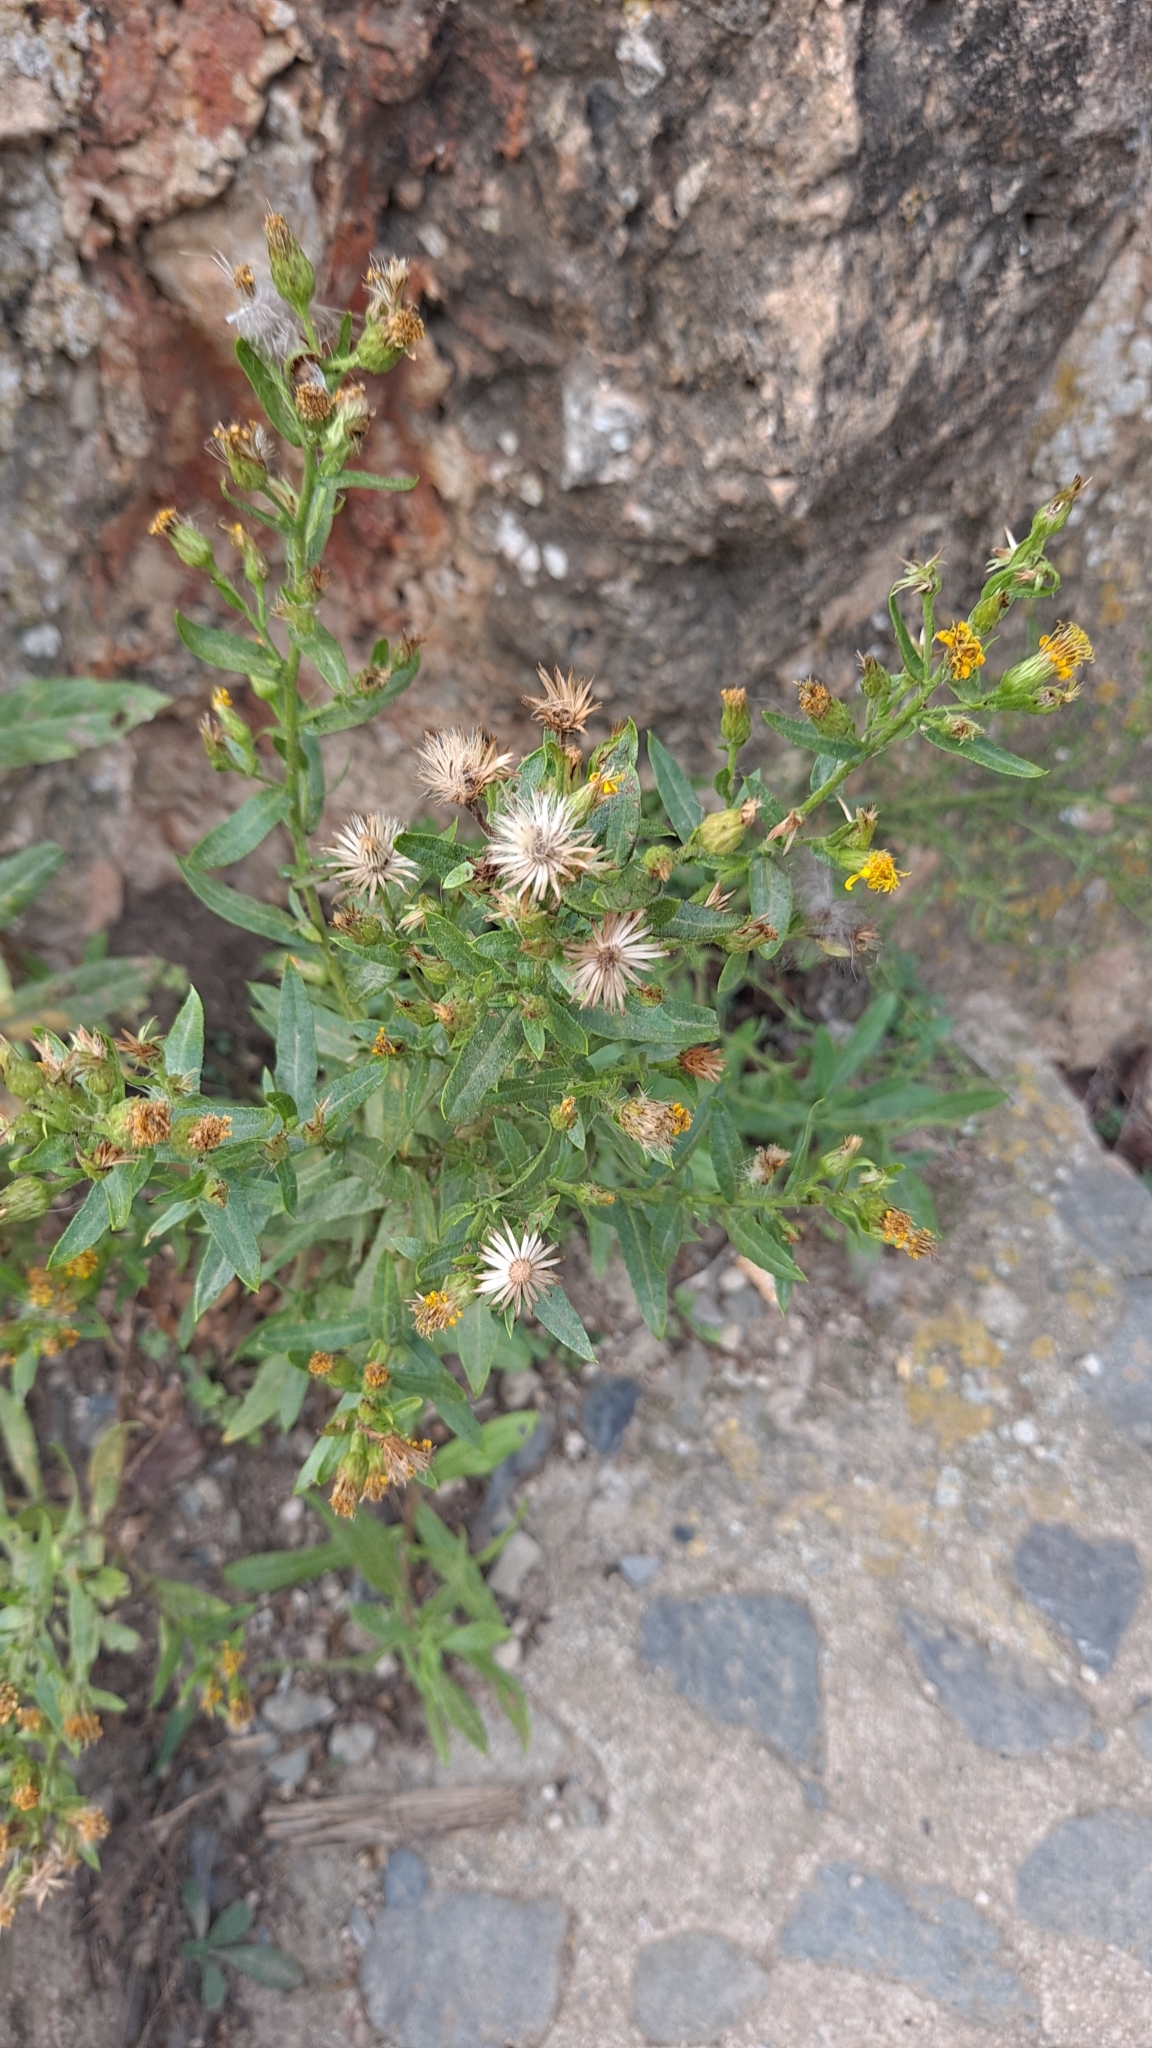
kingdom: Plantae
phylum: Tracheophyta
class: Magnoliopsida
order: Asterales
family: Asteraceae
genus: Dittrichia
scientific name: Dittrichia viscosa
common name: Woody fleabane
